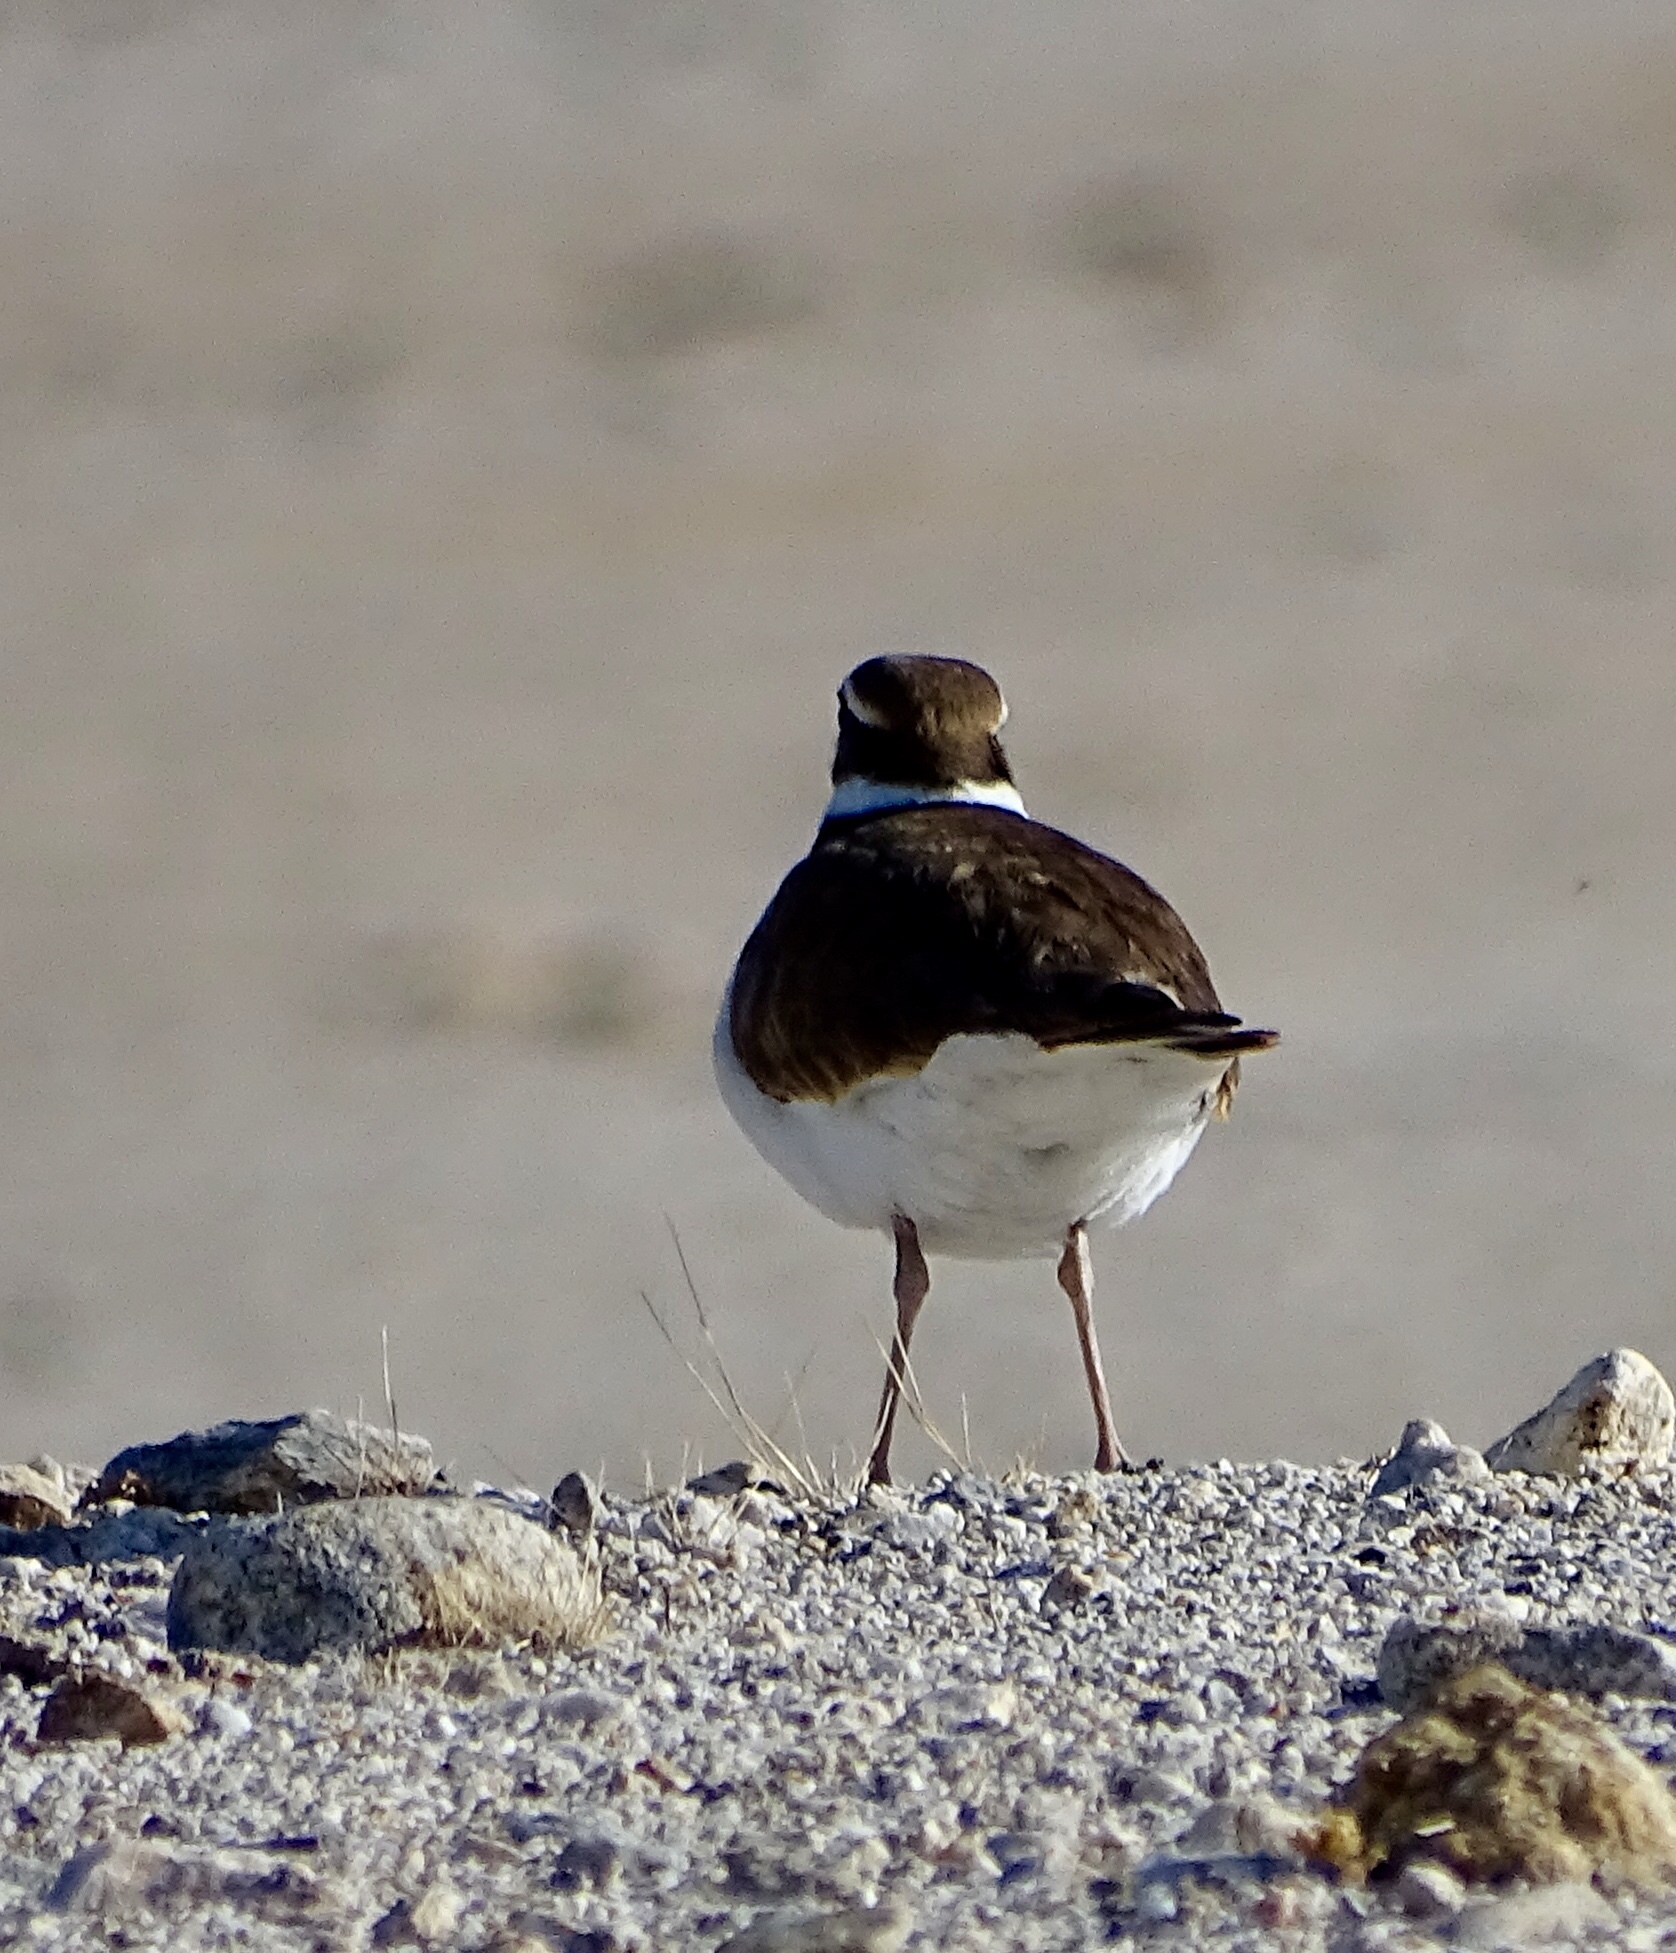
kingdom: Animalia
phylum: Chordata
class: Aves
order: Charadriiformes
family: Charadriidae
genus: Charadrius
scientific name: Charadrius vociferus
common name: Killdeer
